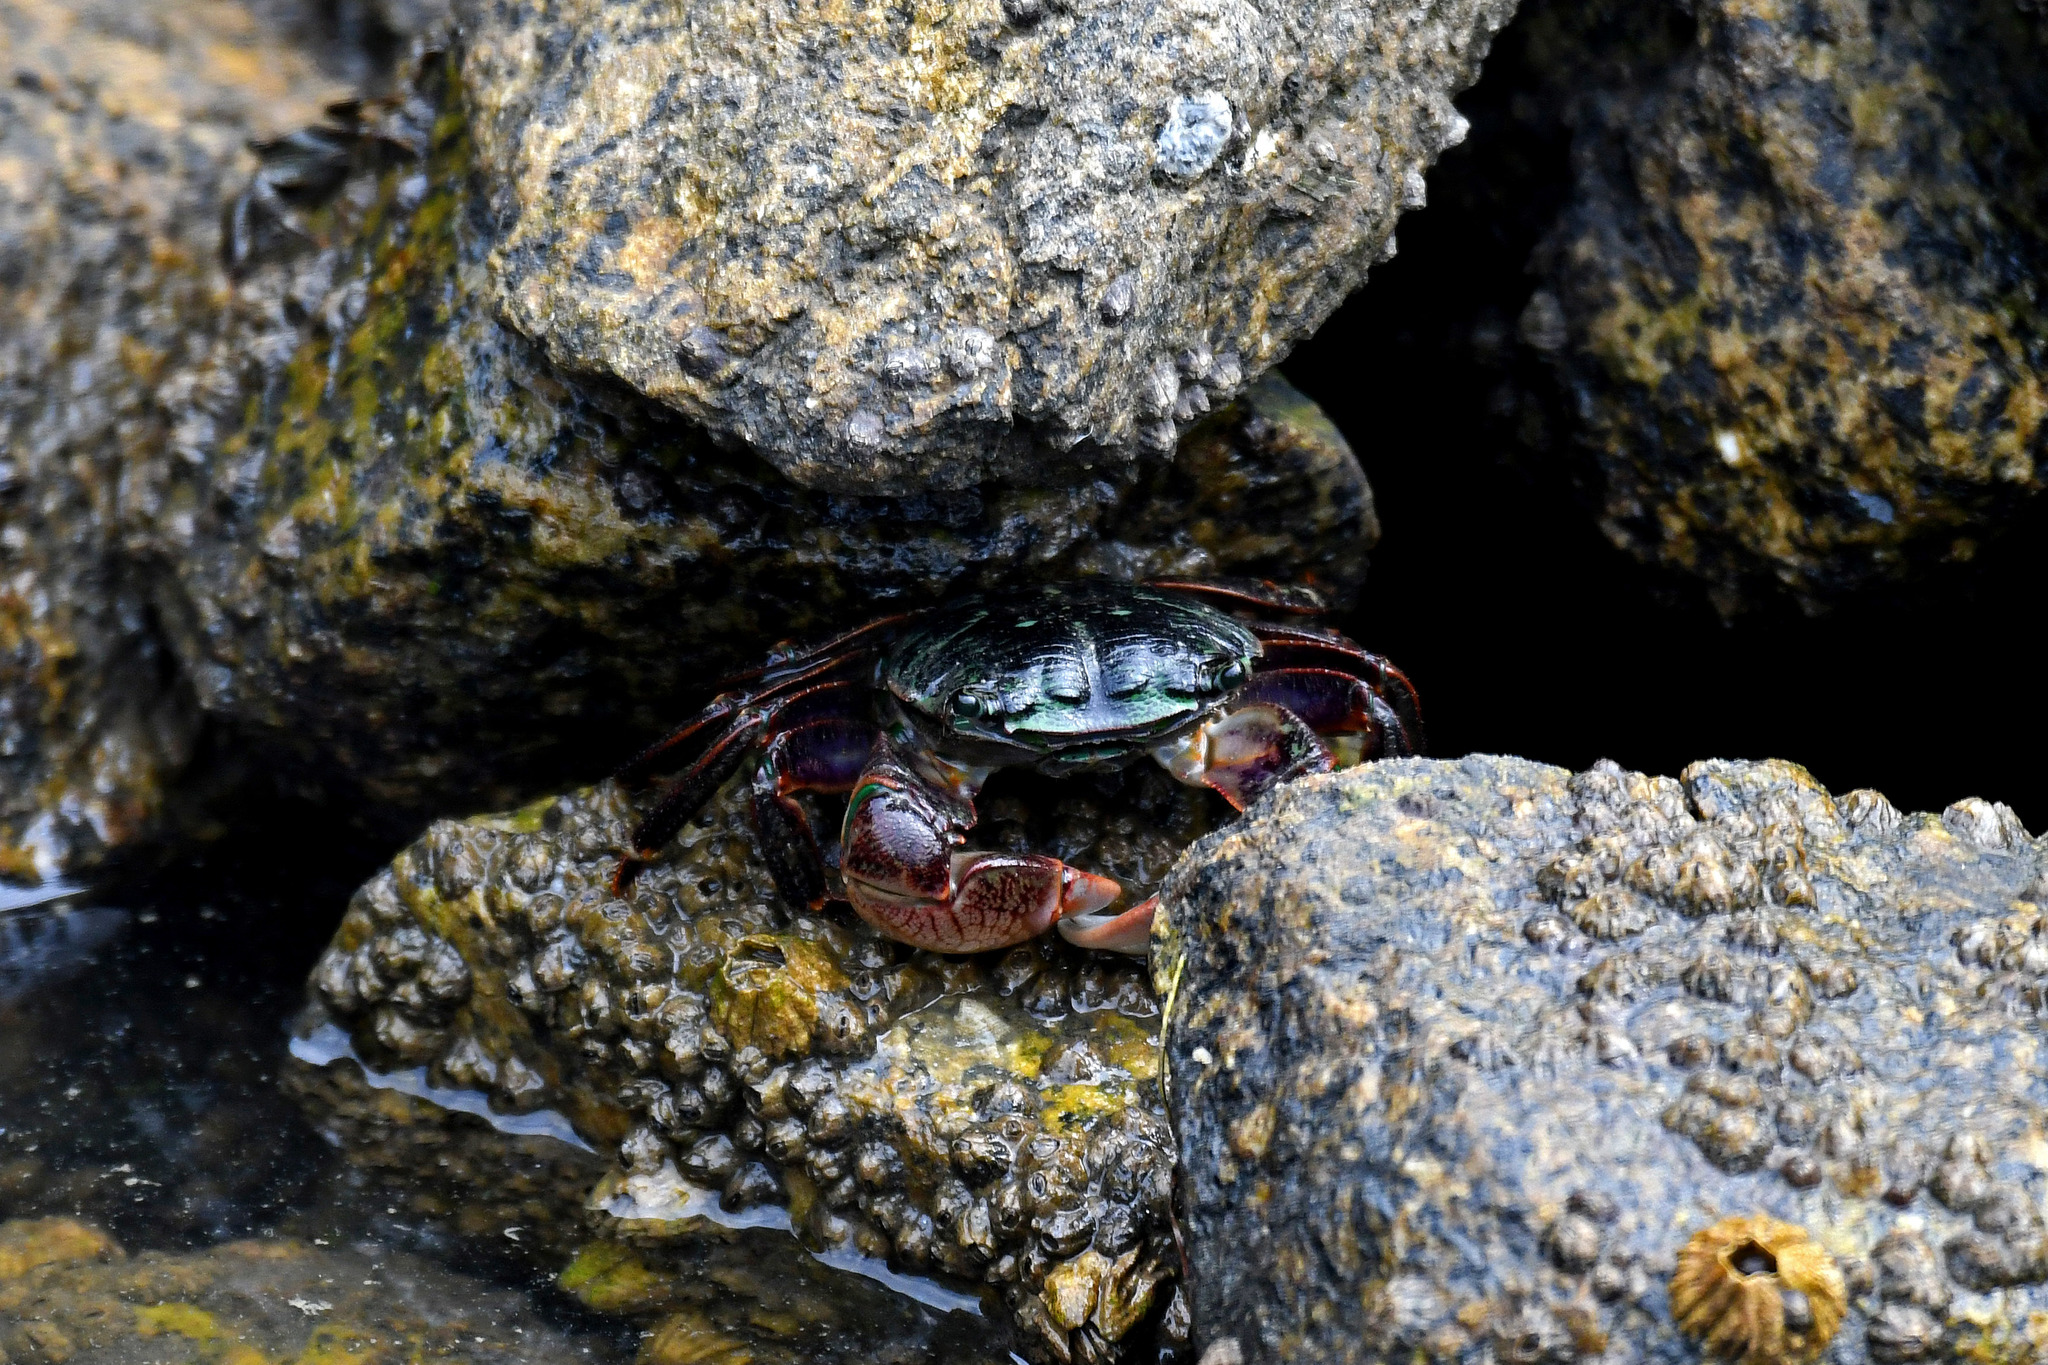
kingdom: Animalia
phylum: Arthropoda
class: Malacostraca
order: Decapoda
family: Grapsidae
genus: Pachygrapsus
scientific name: Pachygrapsus crassipes
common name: Striped shore crab
